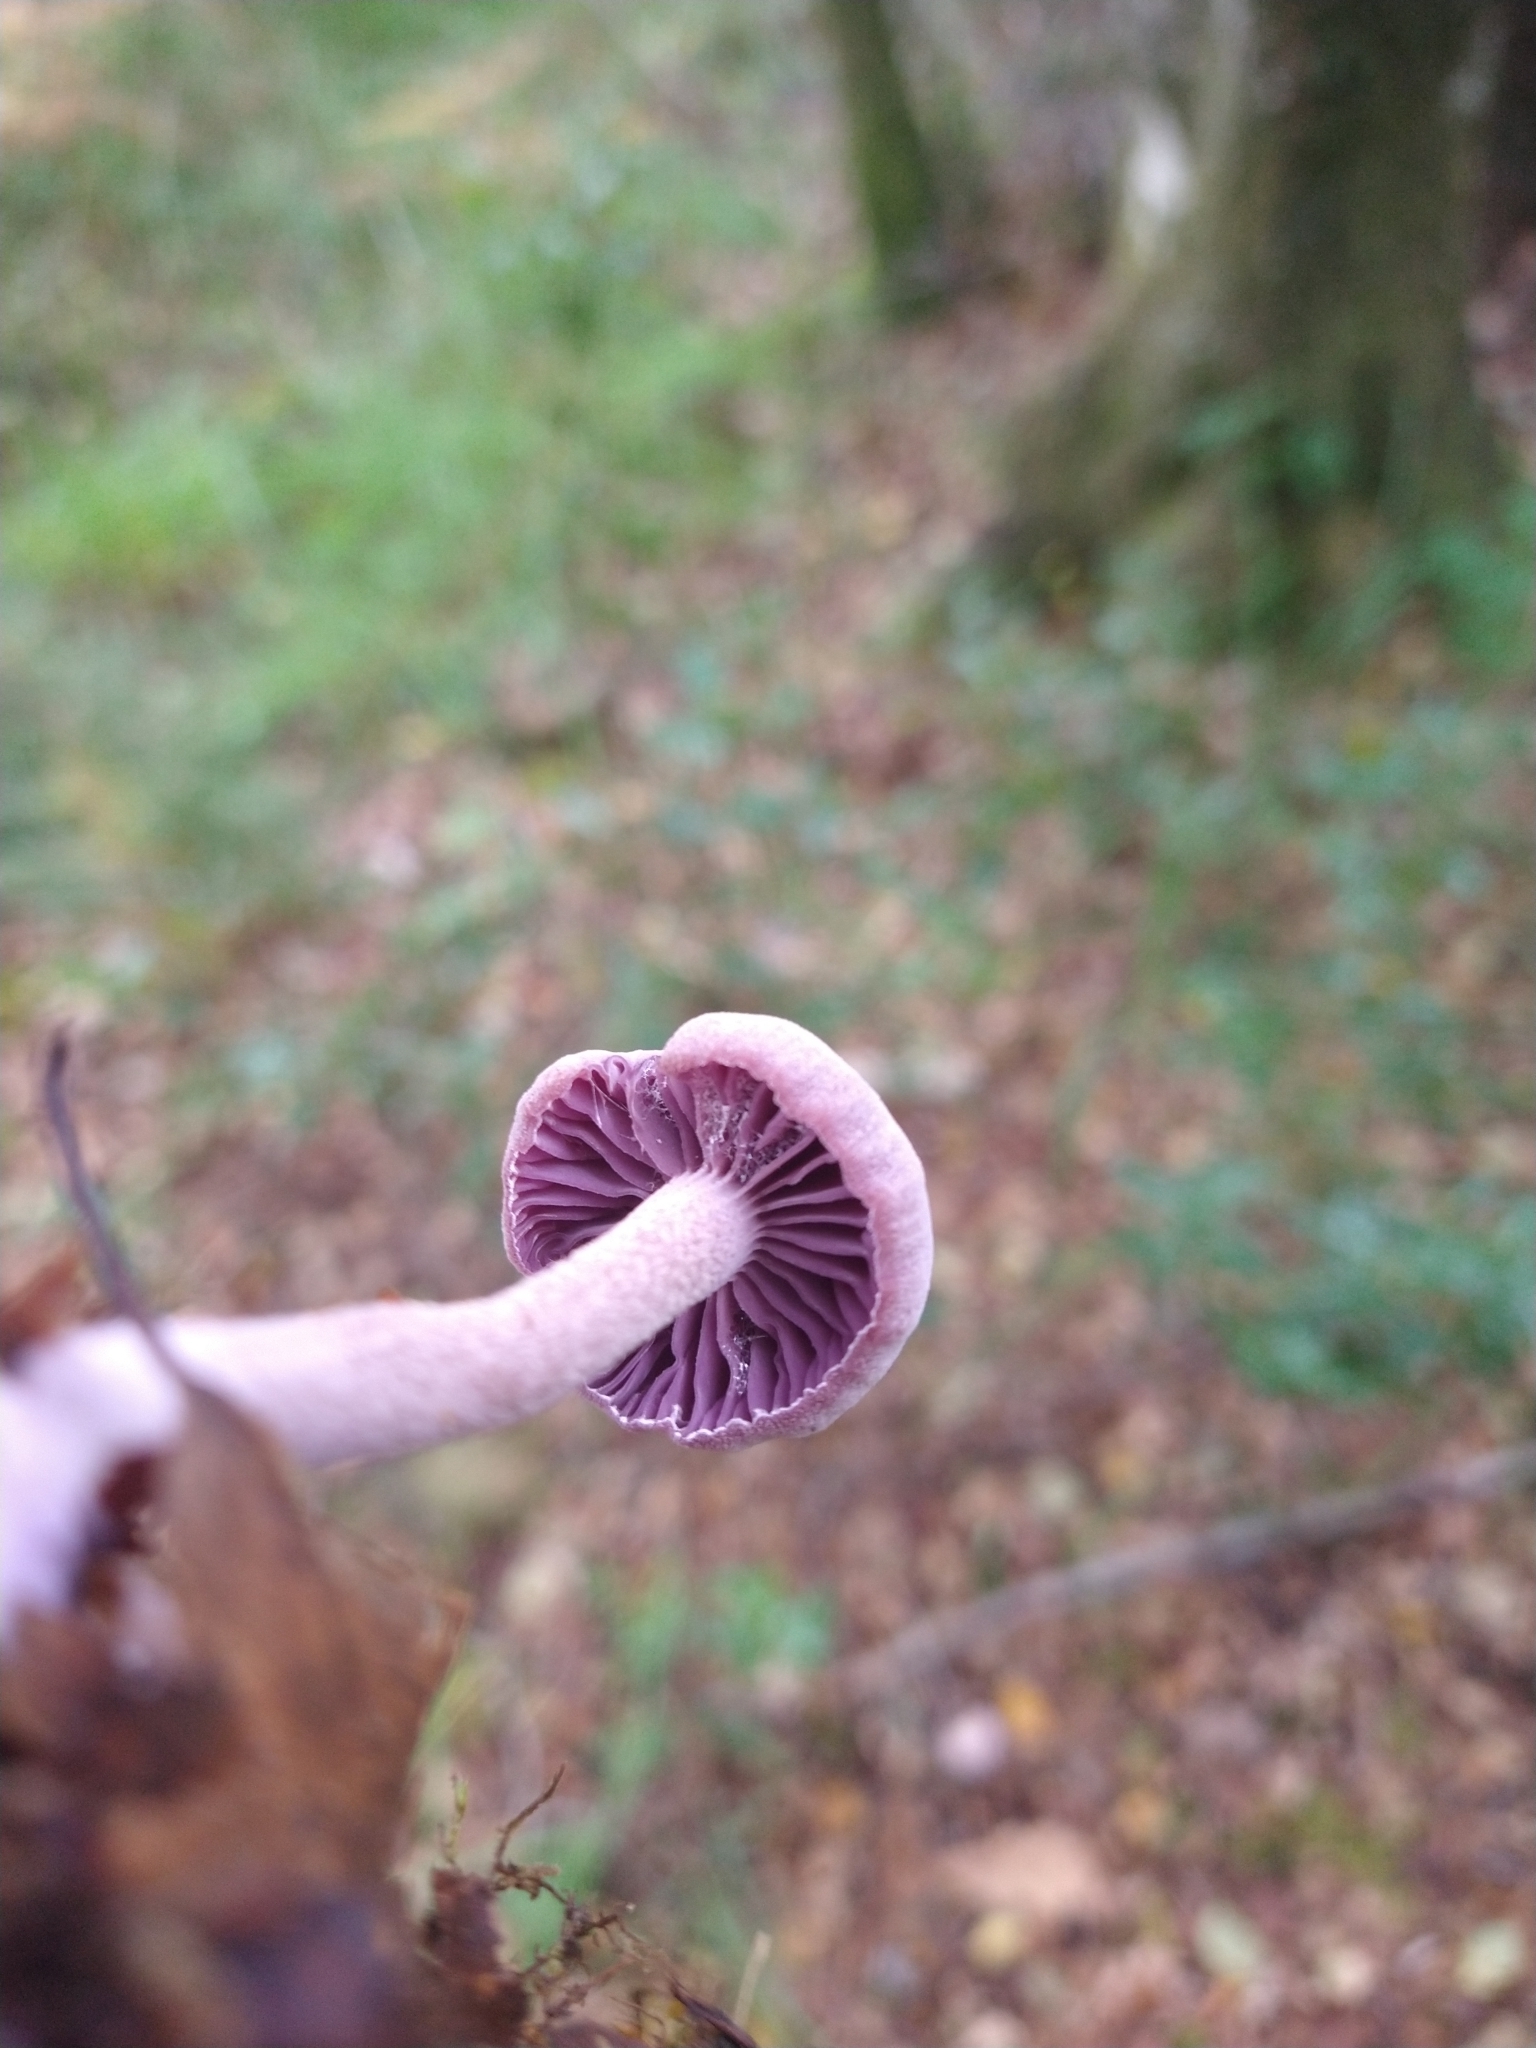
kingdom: Fungi
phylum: Basidiomycota
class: Agaricomycetes
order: Agaricales
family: Hydnangiaceae
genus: Laccaria
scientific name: Laccaria amethystina
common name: Amethyst deceiver
